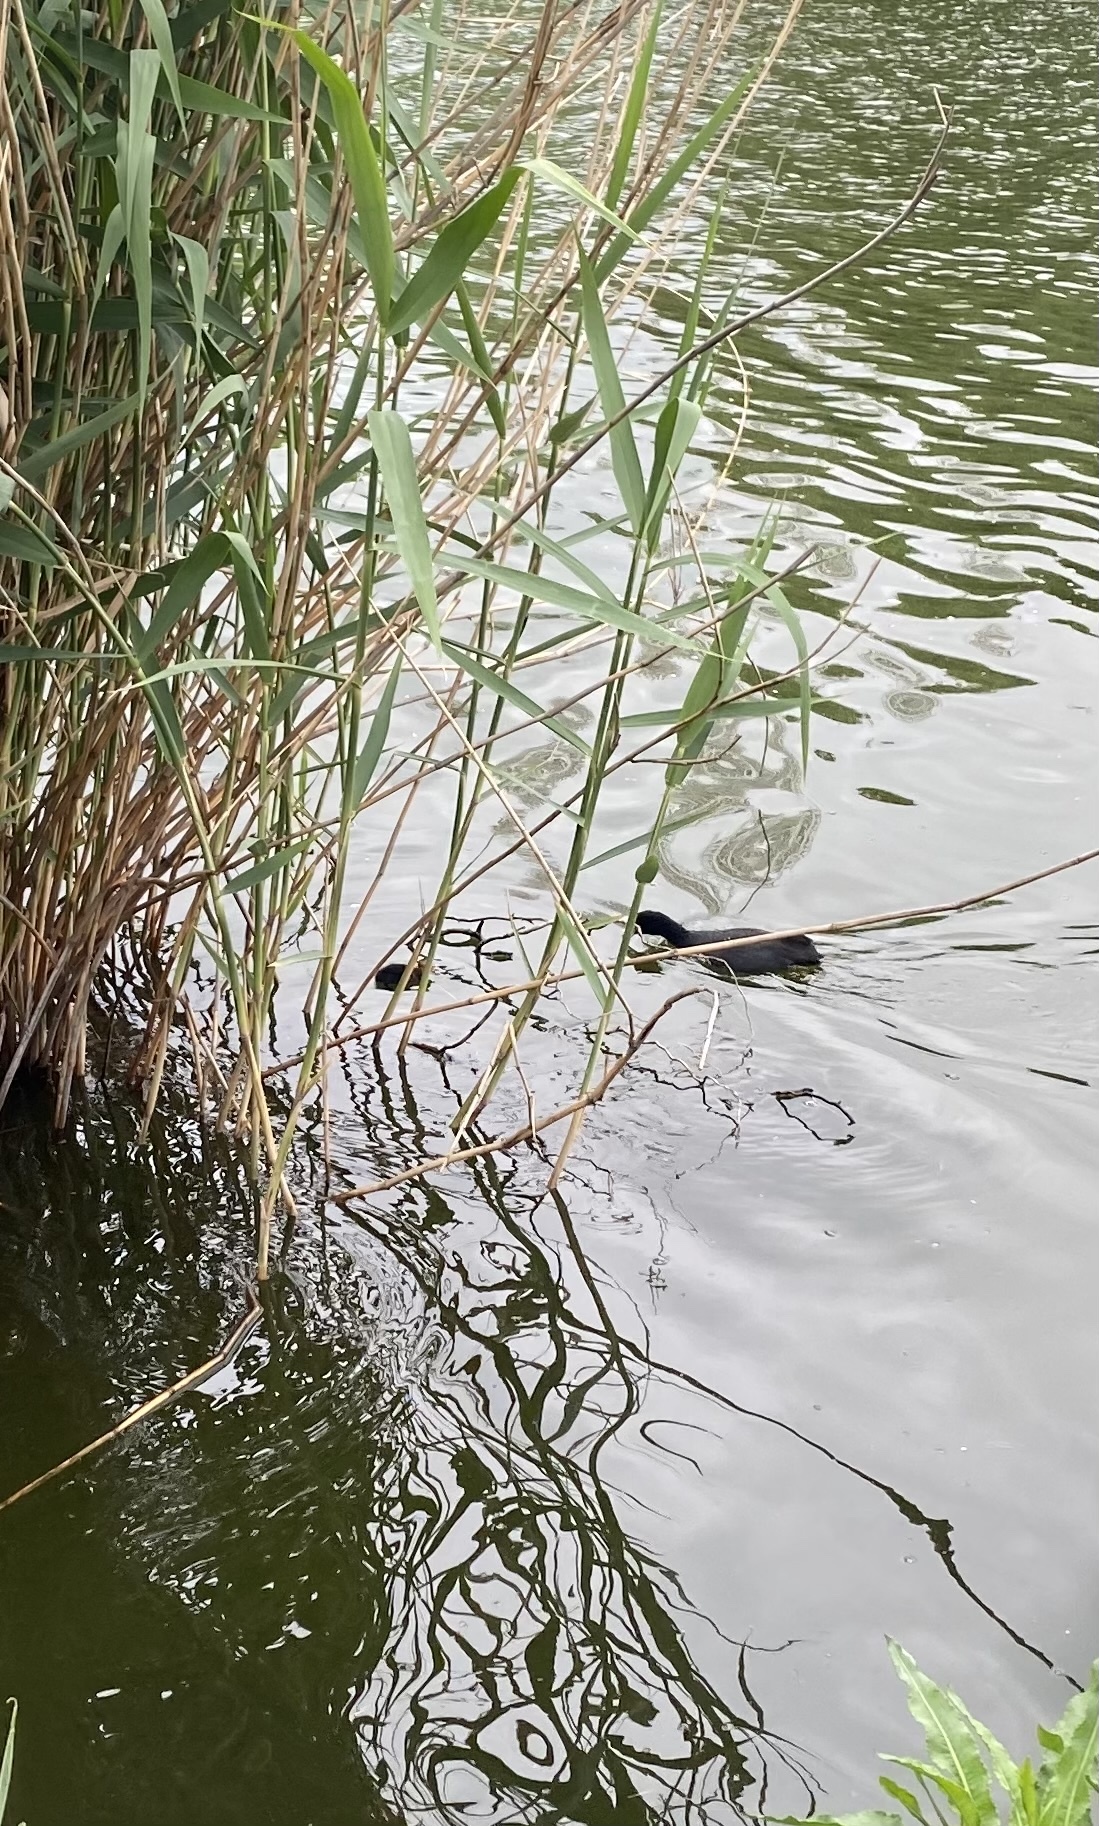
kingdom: Animalia
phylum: Chordata
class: Aves
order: Gruiformes
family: Rallidae
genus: Fulica
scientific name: Fulica atra
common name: Eurasian coot
